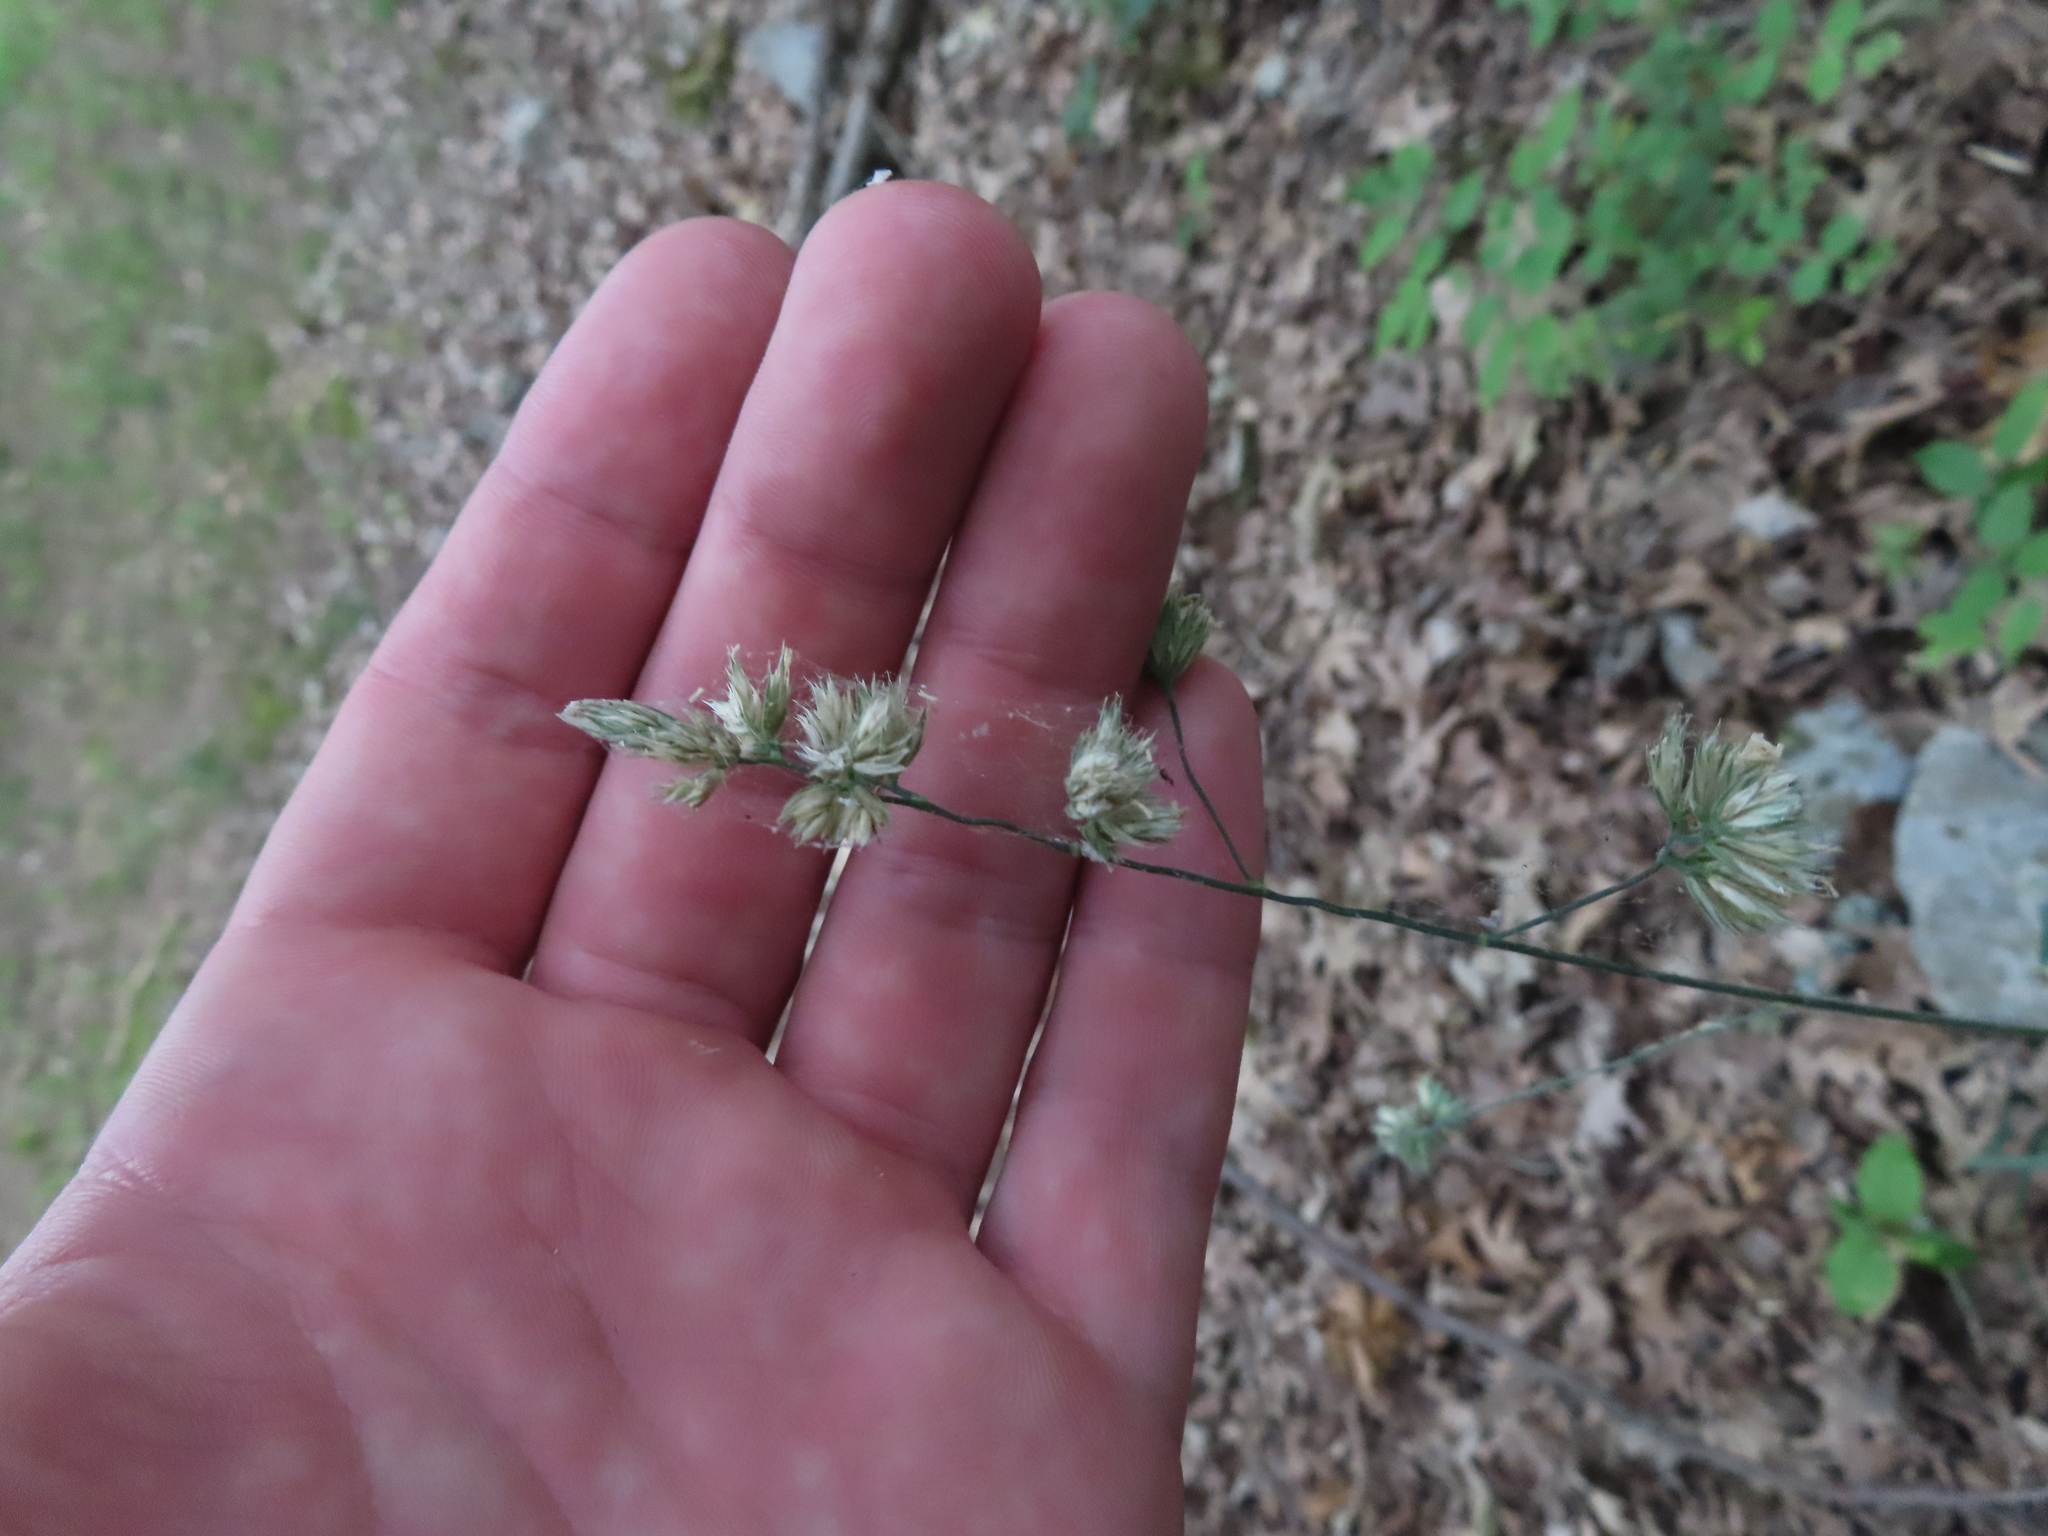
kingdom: Plantae
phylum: Tracheophyta
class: Liliopsida
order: Poales
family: Poaceae
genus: Dactylis
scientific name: Dactylis glomerata
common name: Orchardgrass
